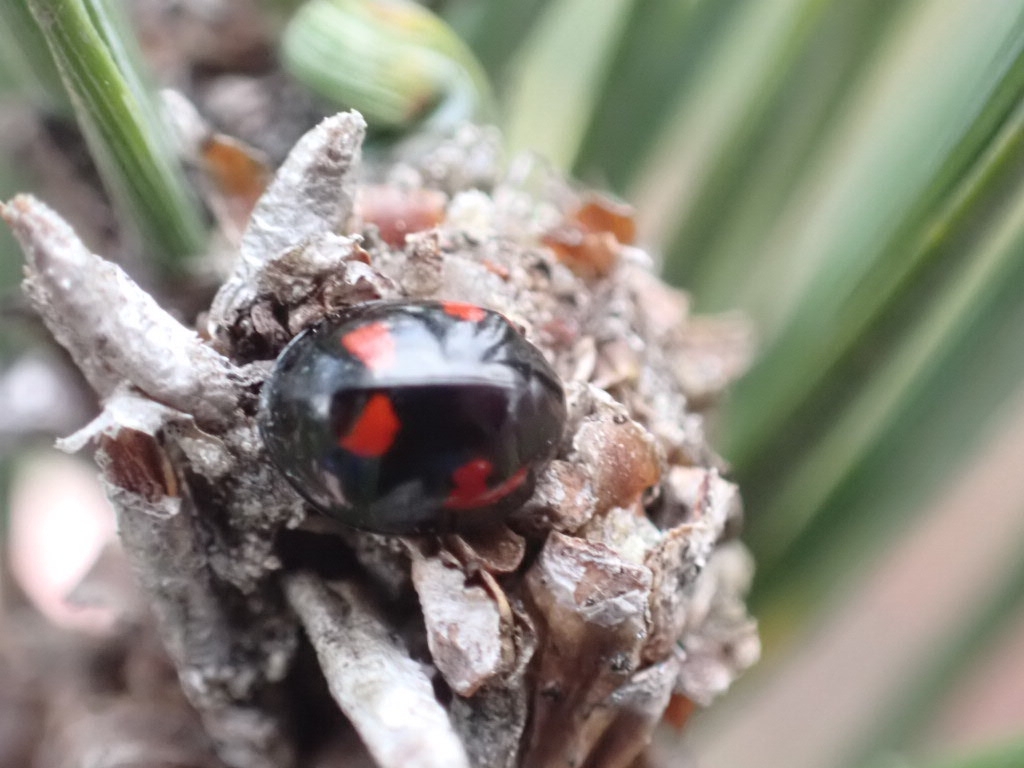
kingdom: Animalia
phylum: Arthropoda
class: Insecta
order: Coleoptera
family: Coccinellidae
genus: Brumus
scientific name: Brumus quadripustulatus
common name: Ladybird beetle
